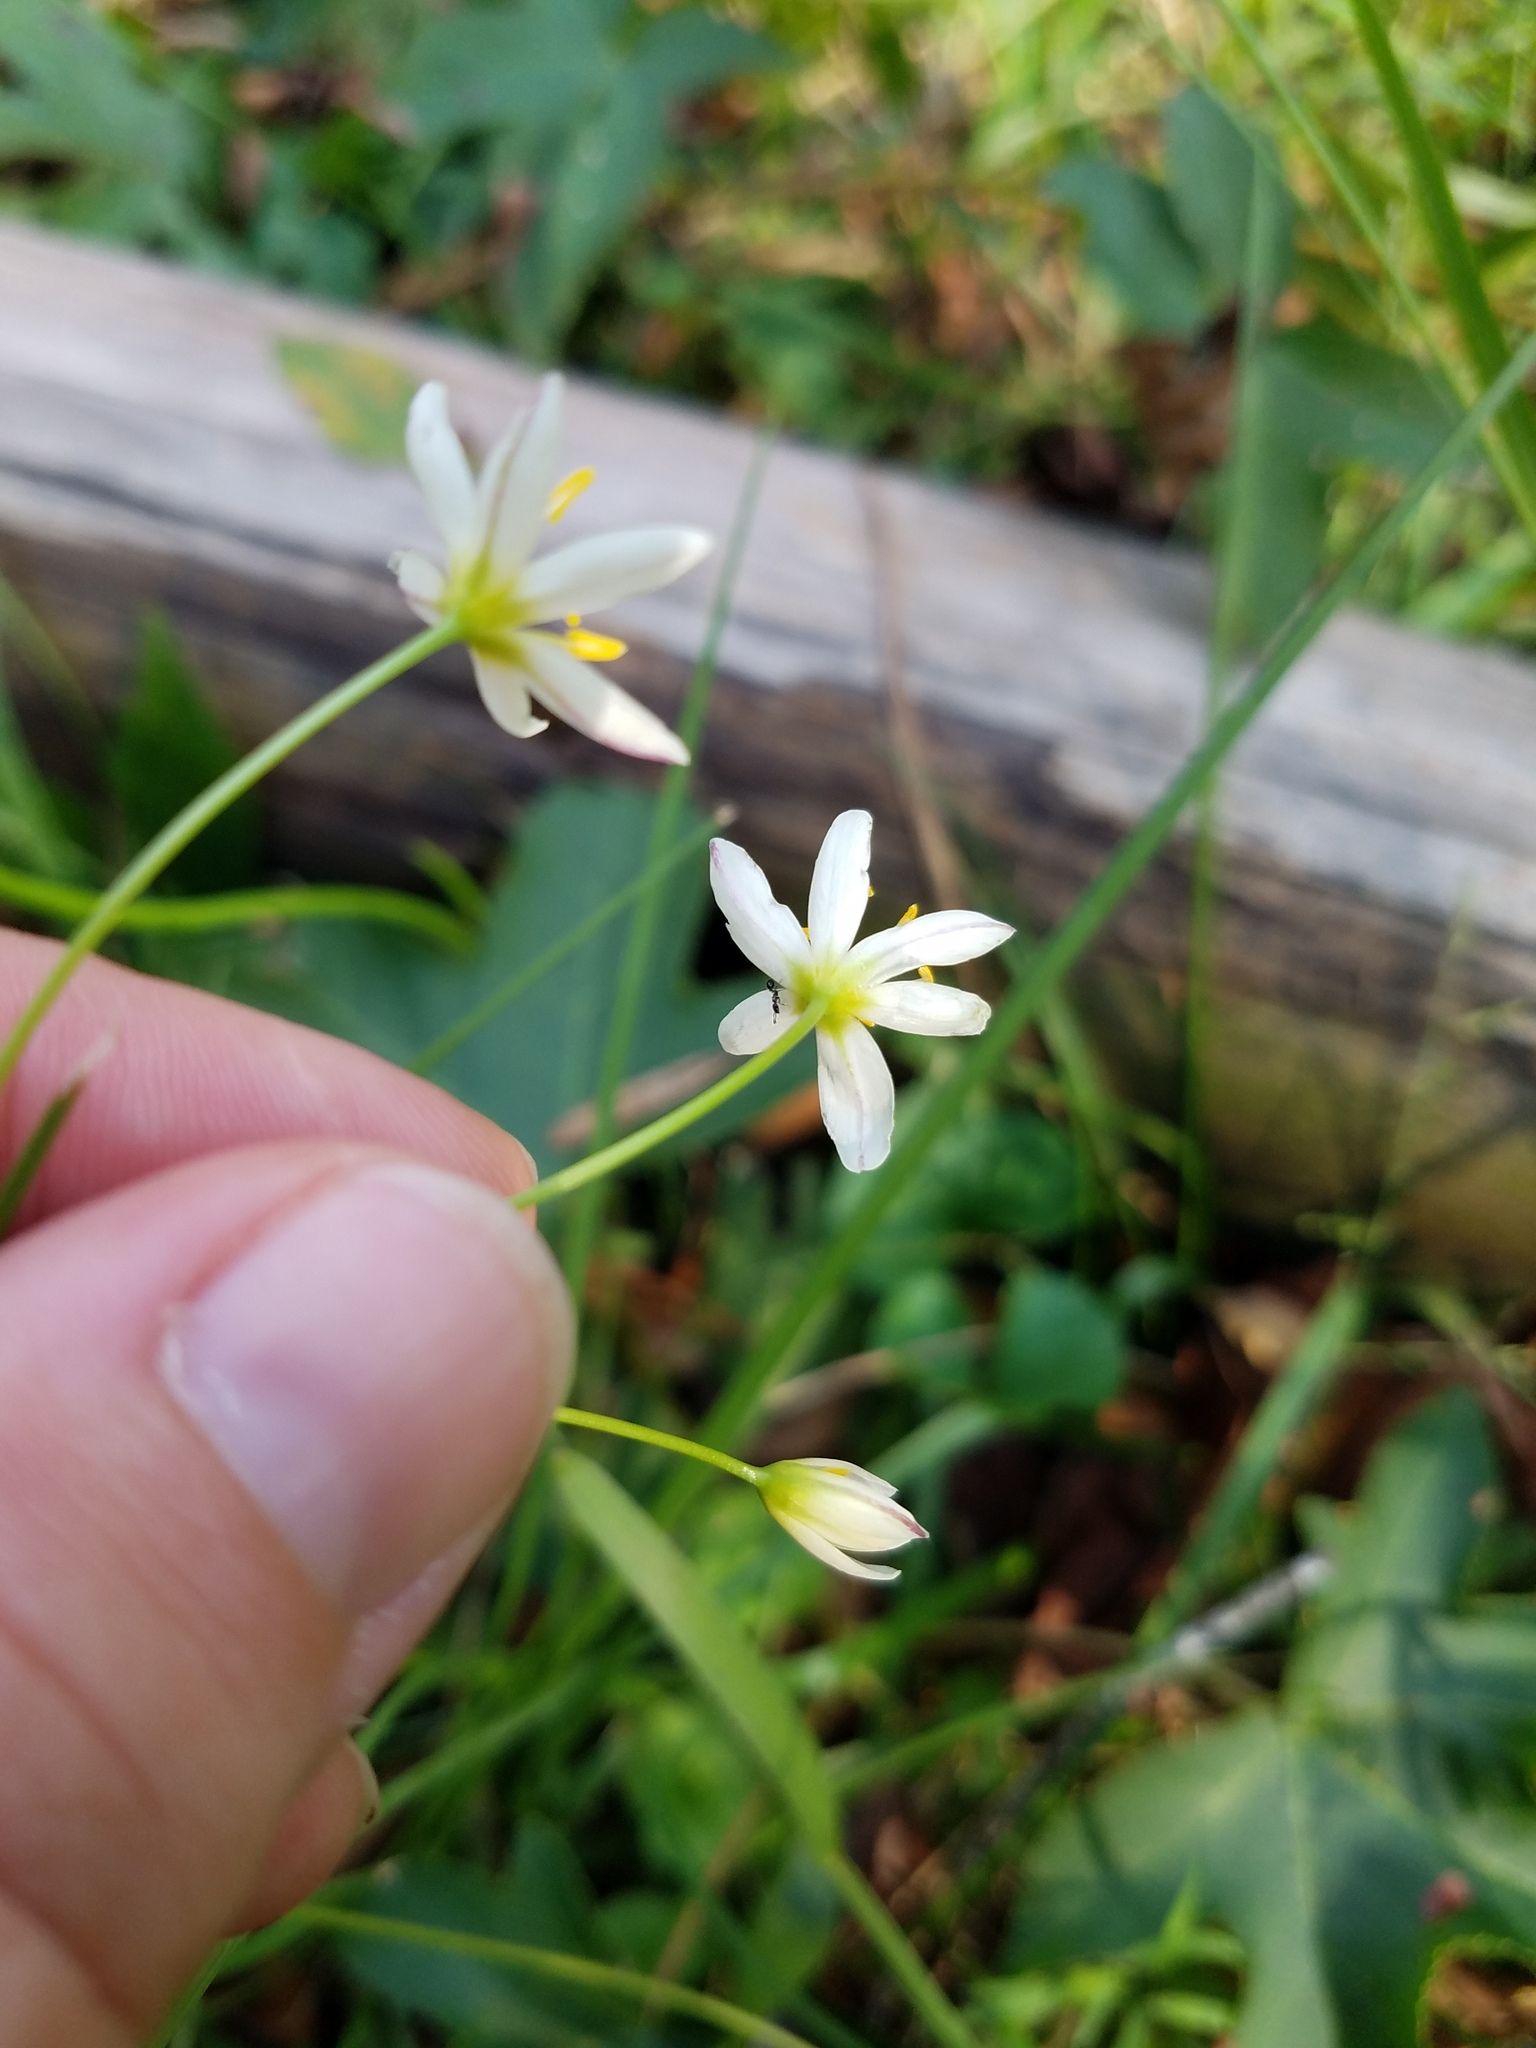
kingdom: Plantae
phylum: Tracheophyta
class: Liliopsida
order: Asparagales
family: Amaryllidaceae
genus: Nothoscordum
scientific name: Nothoscordum bivalve
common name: Crow-poison
